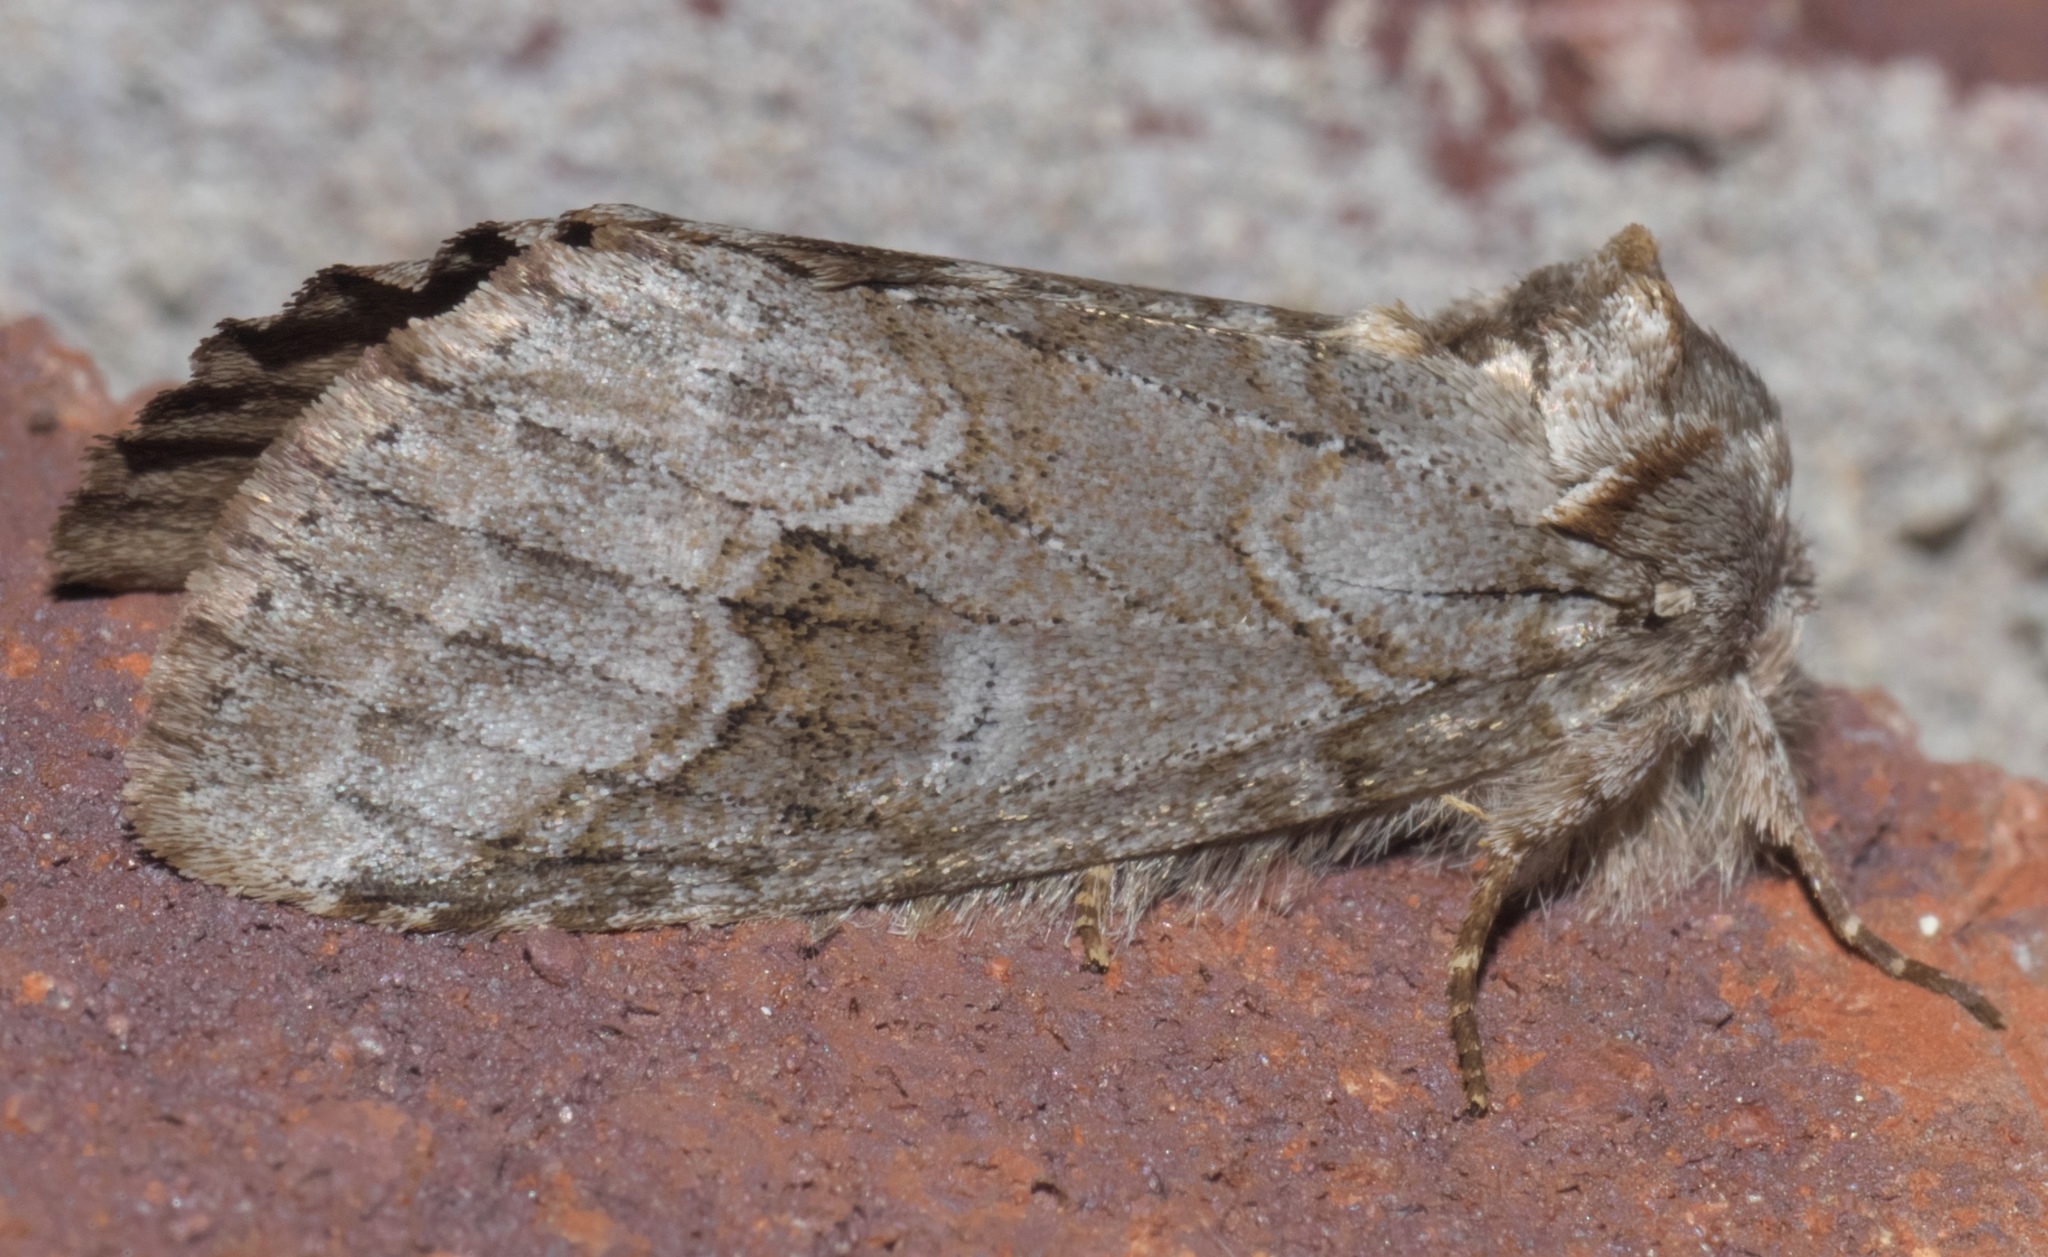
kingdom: Animalia
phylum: Arthropoda
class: Insecta
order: Lepidoptera
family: Notodontidae
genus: Lochmaeus
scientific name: Lochmaeus bilineata
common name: Double-lined prominent
